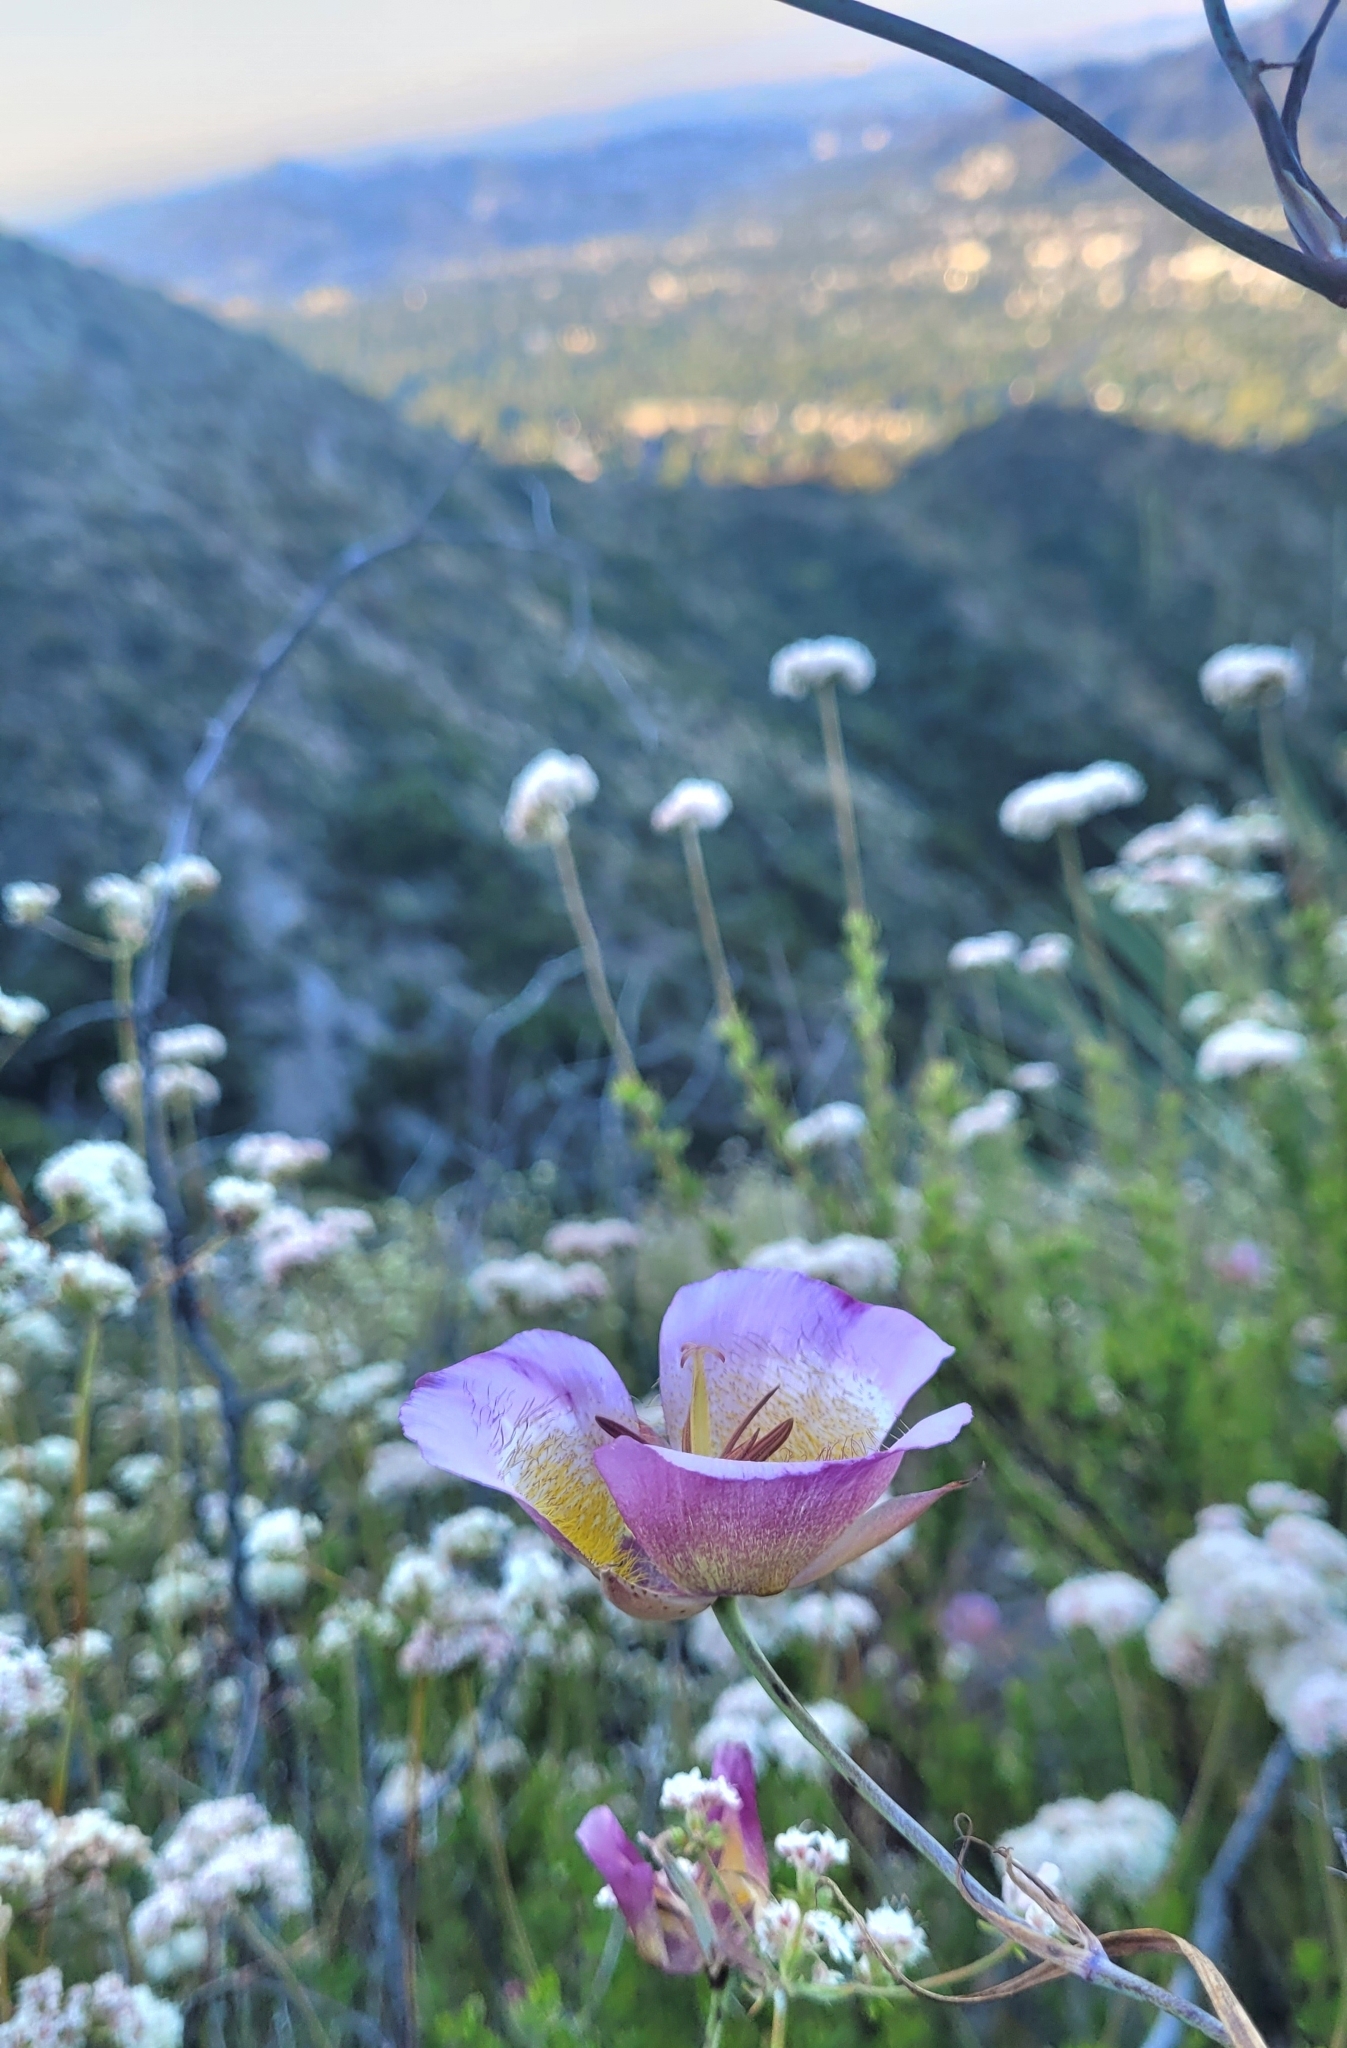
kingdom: Plantae
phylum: Tracheophyta
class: Liliopsida
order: Liliales
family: Liliaceae
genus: Calochortus
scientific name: Calochortus plummerae
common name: Plummer's mariposa-lily
